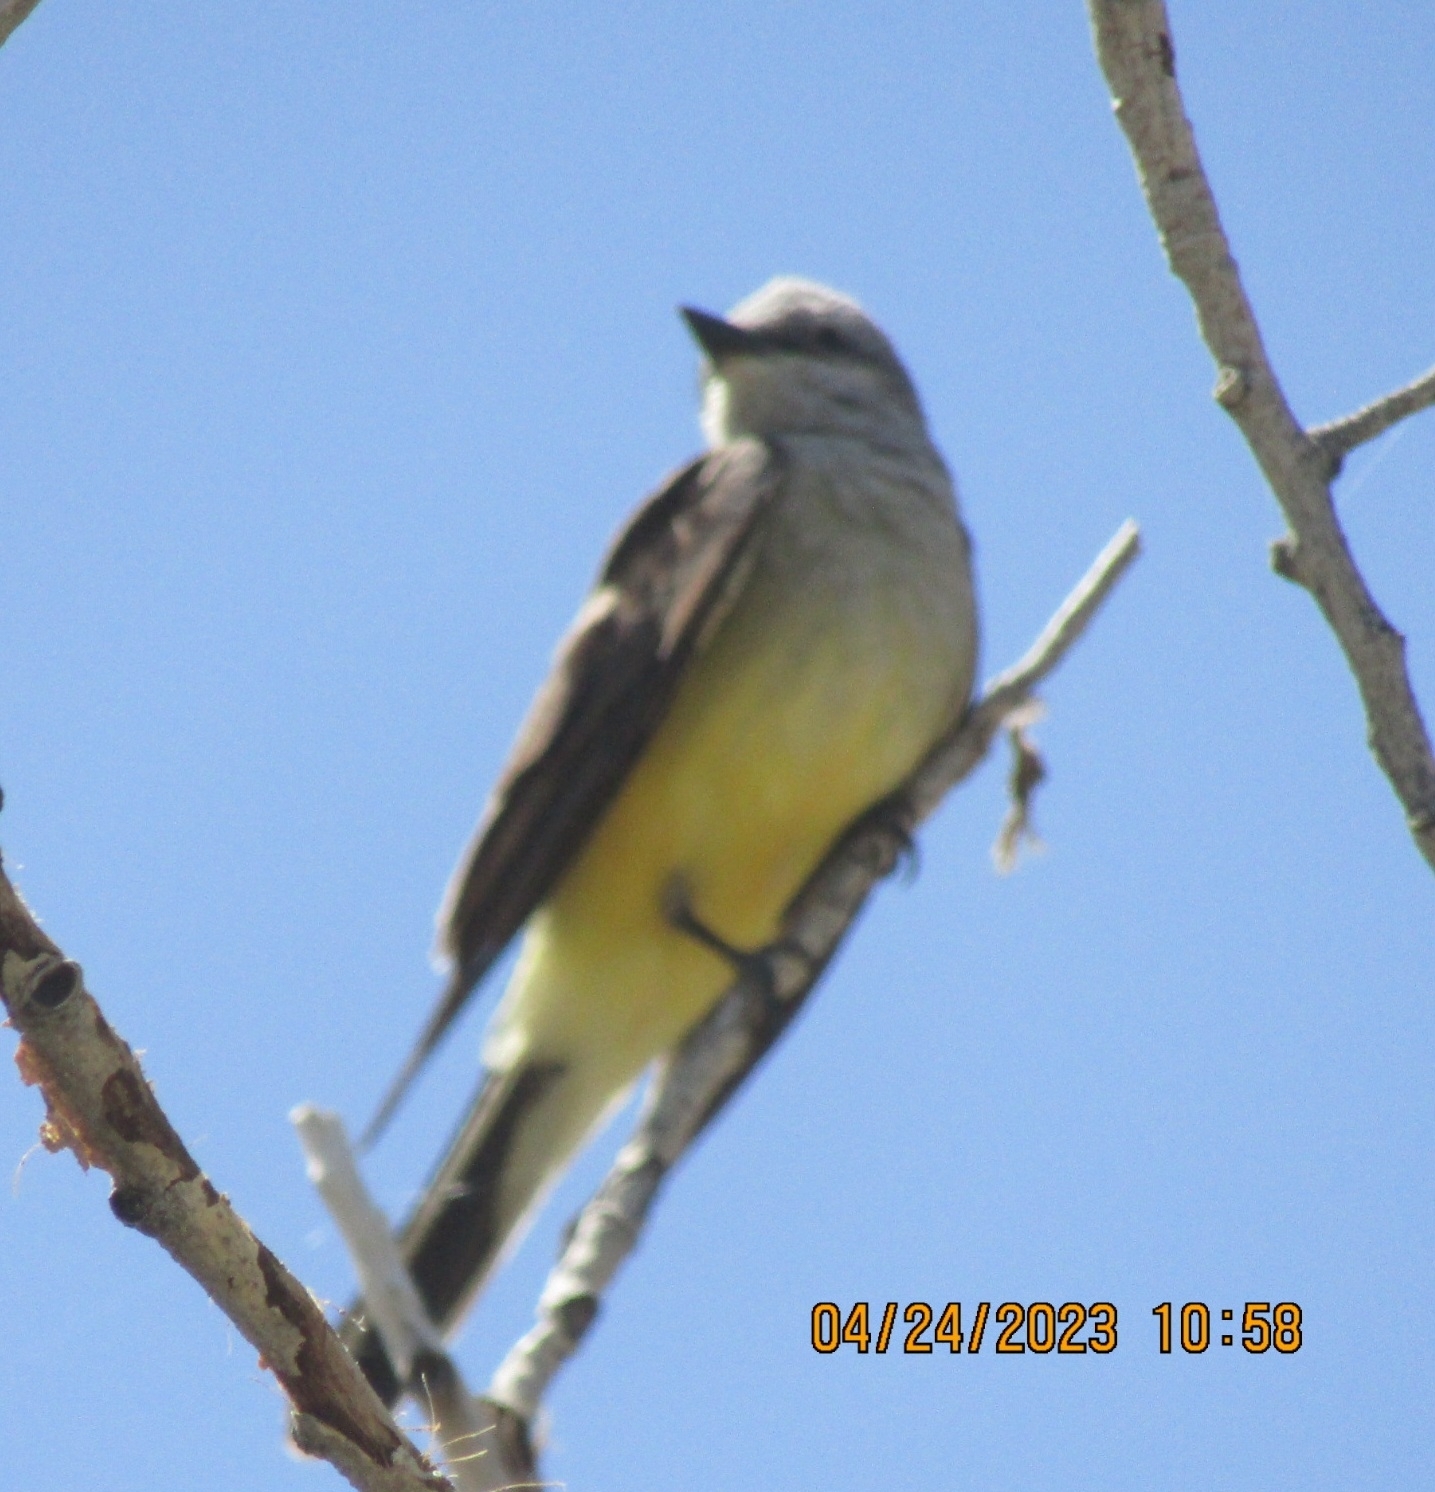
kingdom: Animalia
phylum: Chordata
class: Aves
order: Passeriformes
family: Tyrannidae
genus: Tyrannus
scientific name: Tyrannus verticalis
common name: Western kingbird
